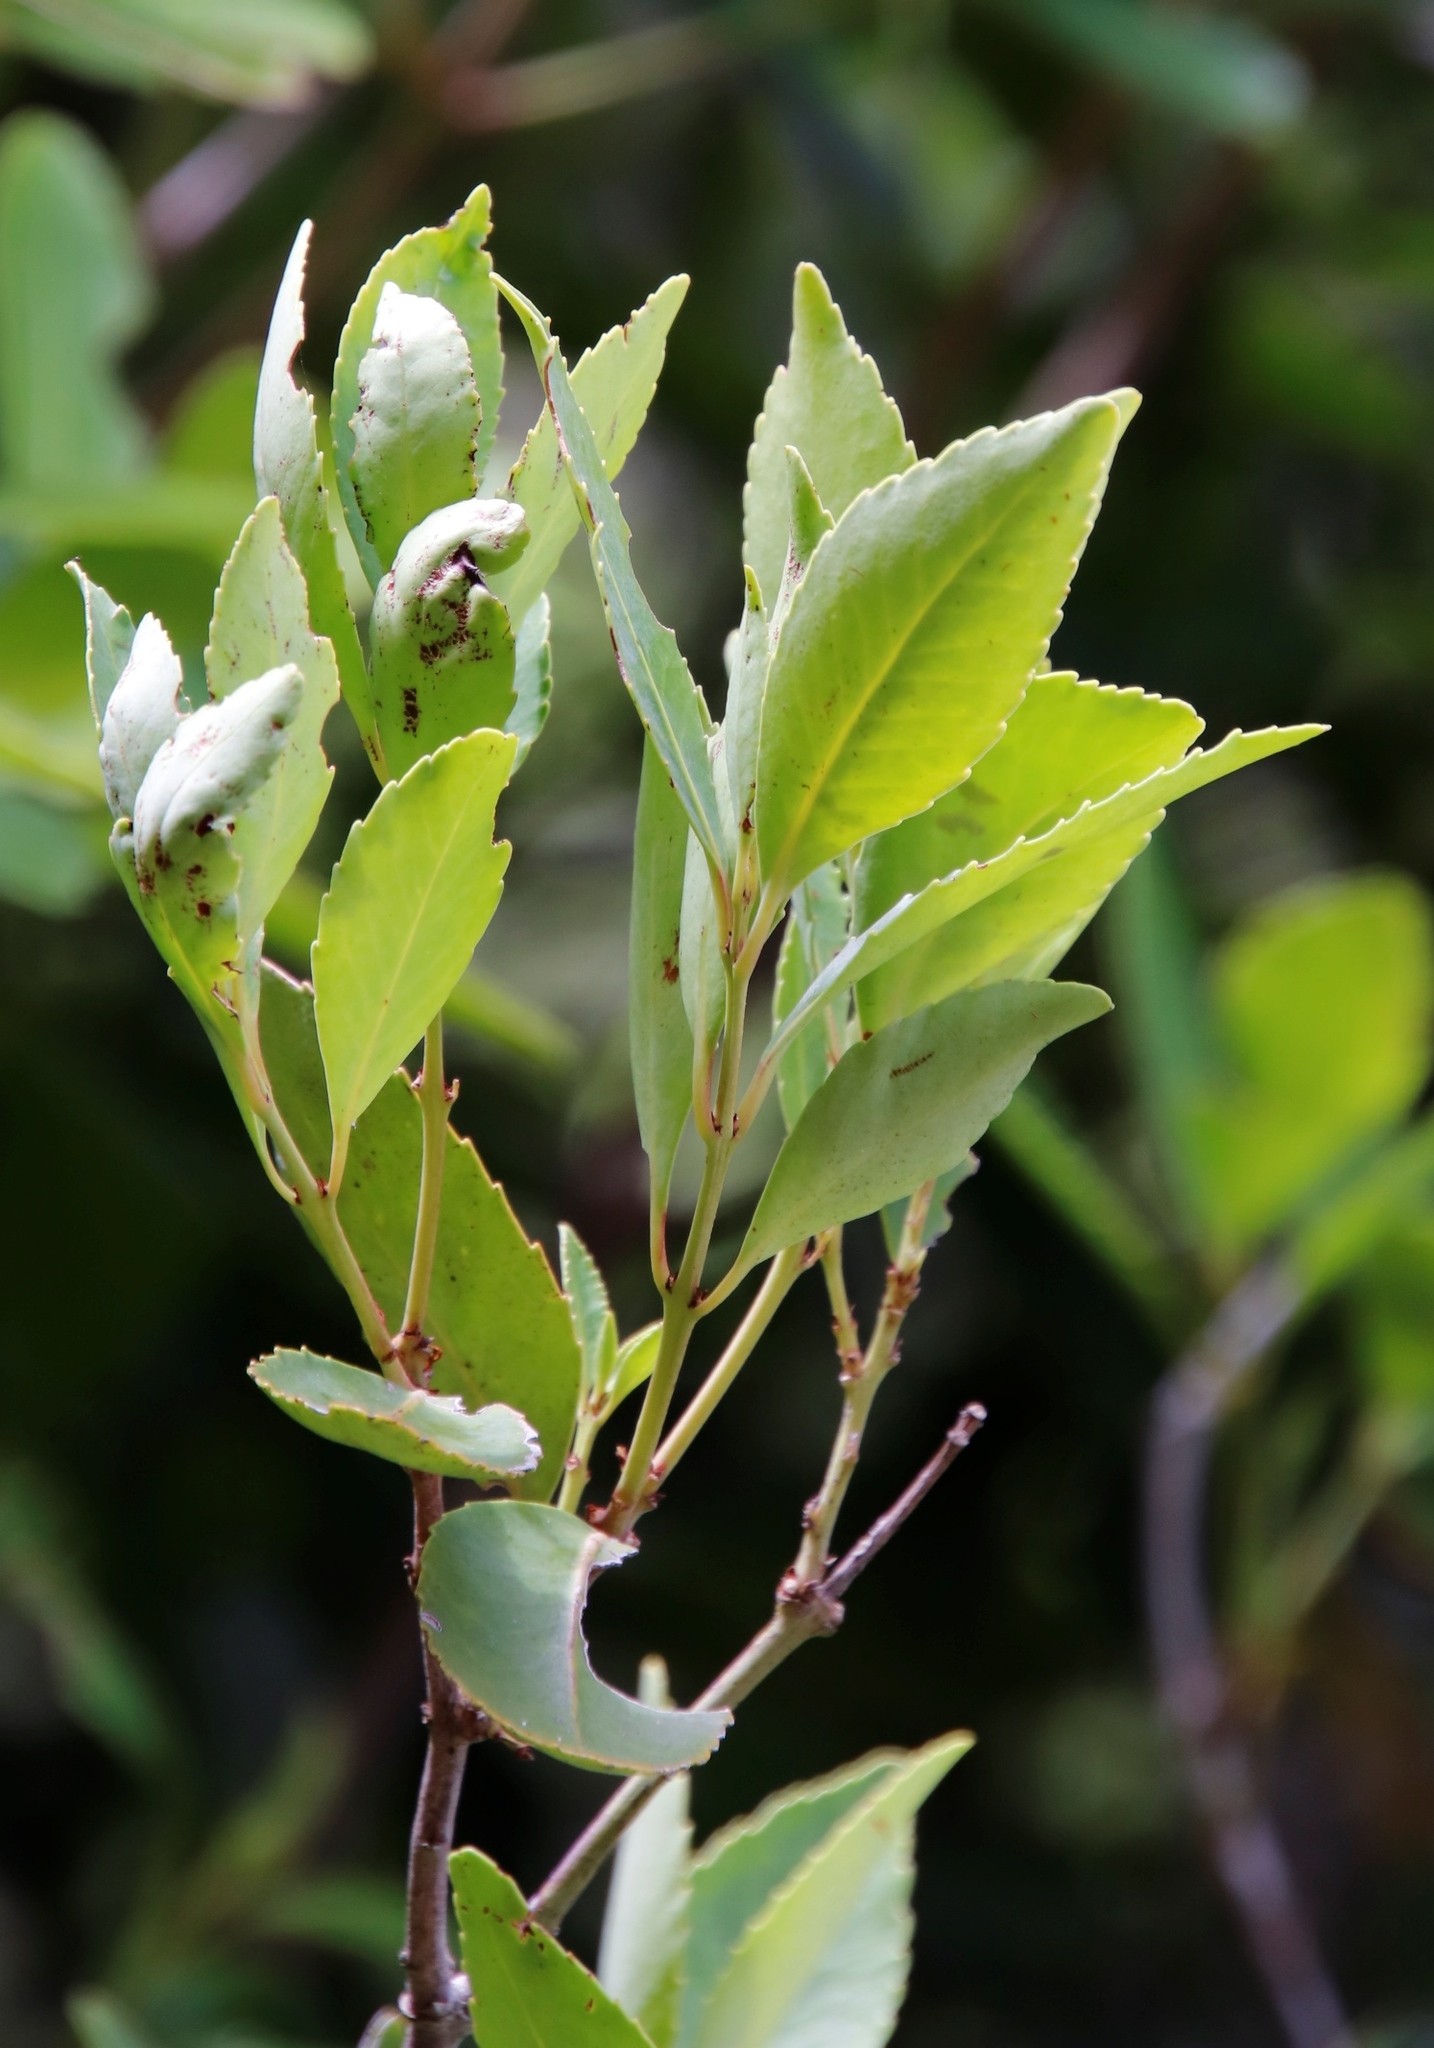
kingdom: Plantae
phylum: Tracheophyta
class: Magnoliopsida
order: Celastrales
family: Celastraceae
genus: Elaeodendron
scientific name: Elaeodendron schinoides
